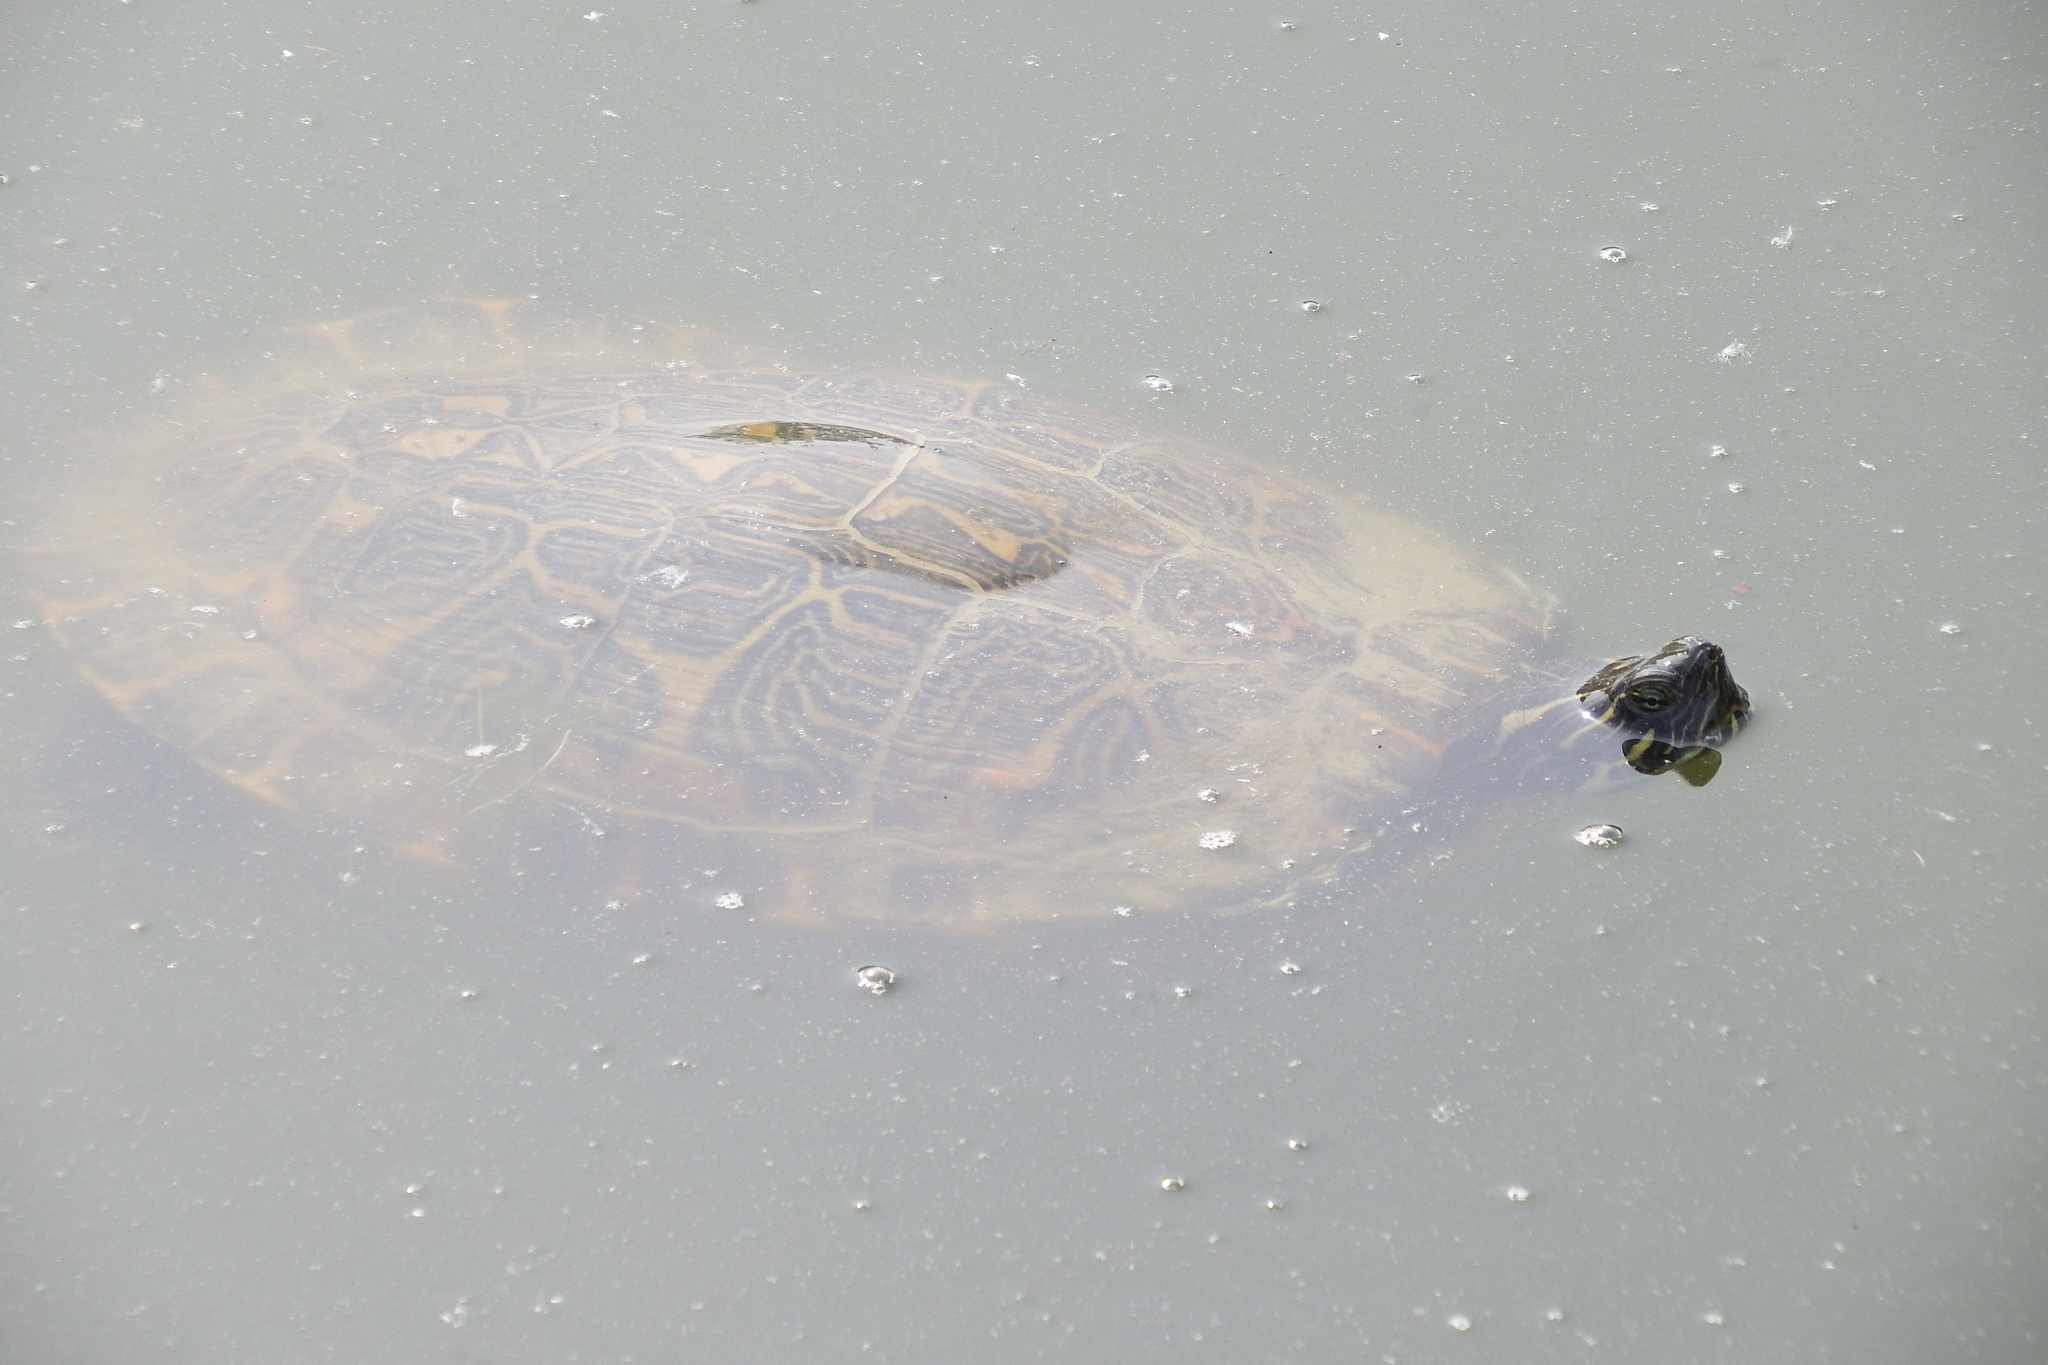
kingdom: Animalia
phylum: Chordata
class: Testudines
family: Emydidae
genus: Trachemys
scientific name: Trachemys scripta
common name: Slider
